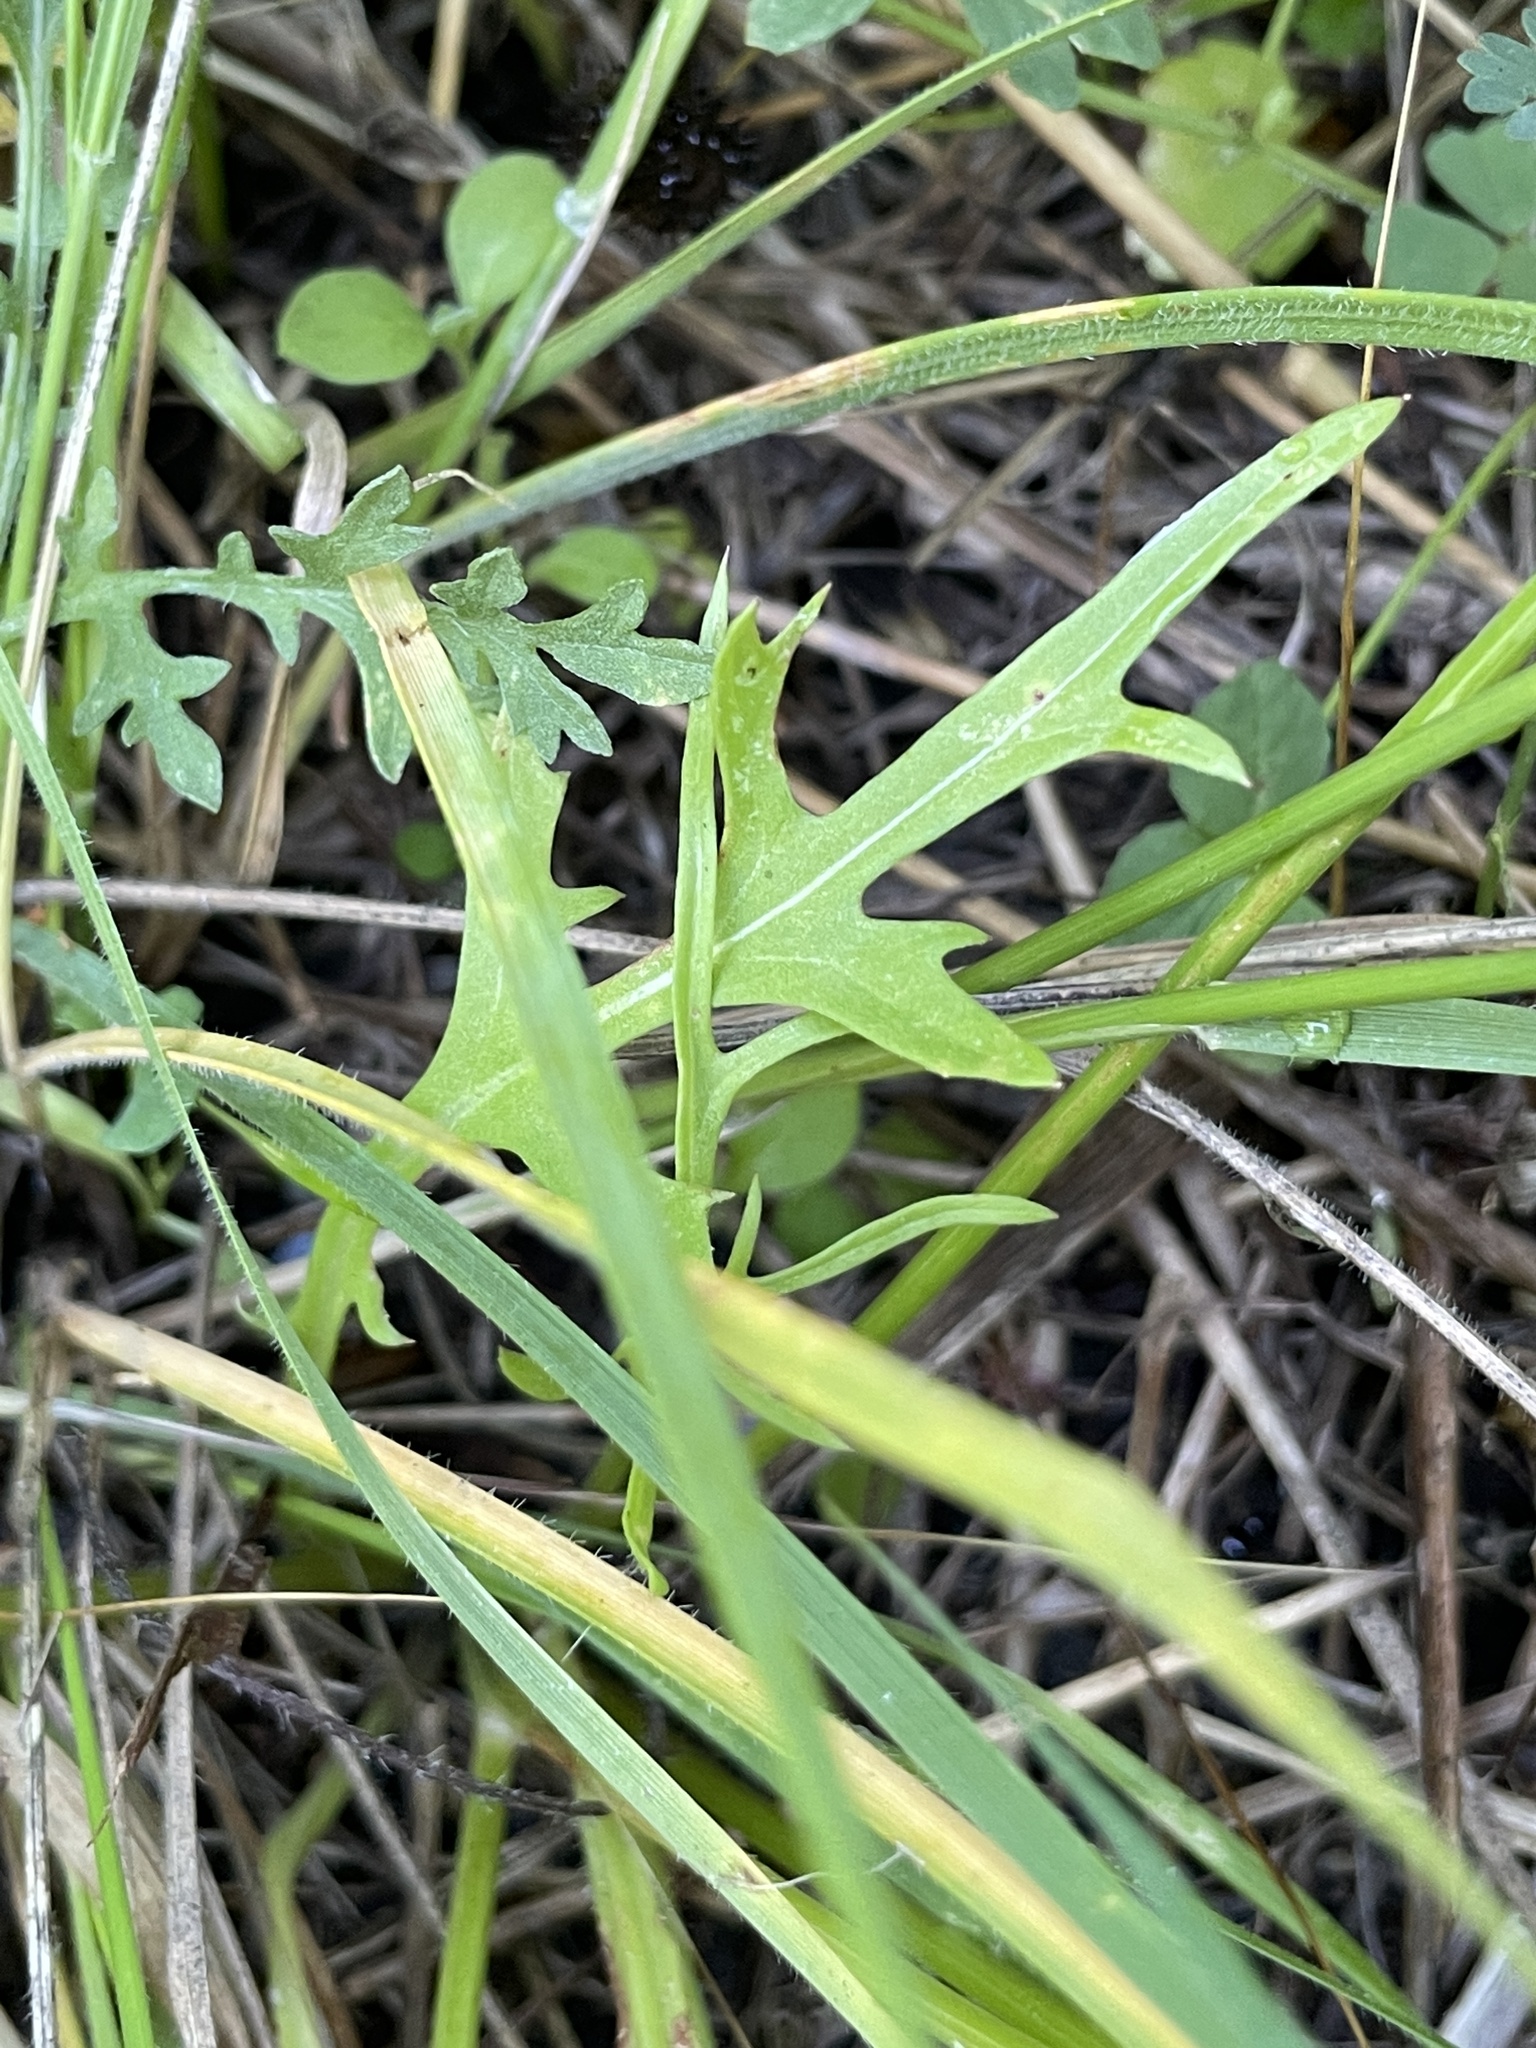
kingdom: Plantae
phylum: Tracheophyta
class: Magnoliopsida
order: Asterales
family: Asteraceae
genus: Pyrrhopappus
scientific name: Pyrrhopappus pauciflorus
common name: Texas false dandelion
